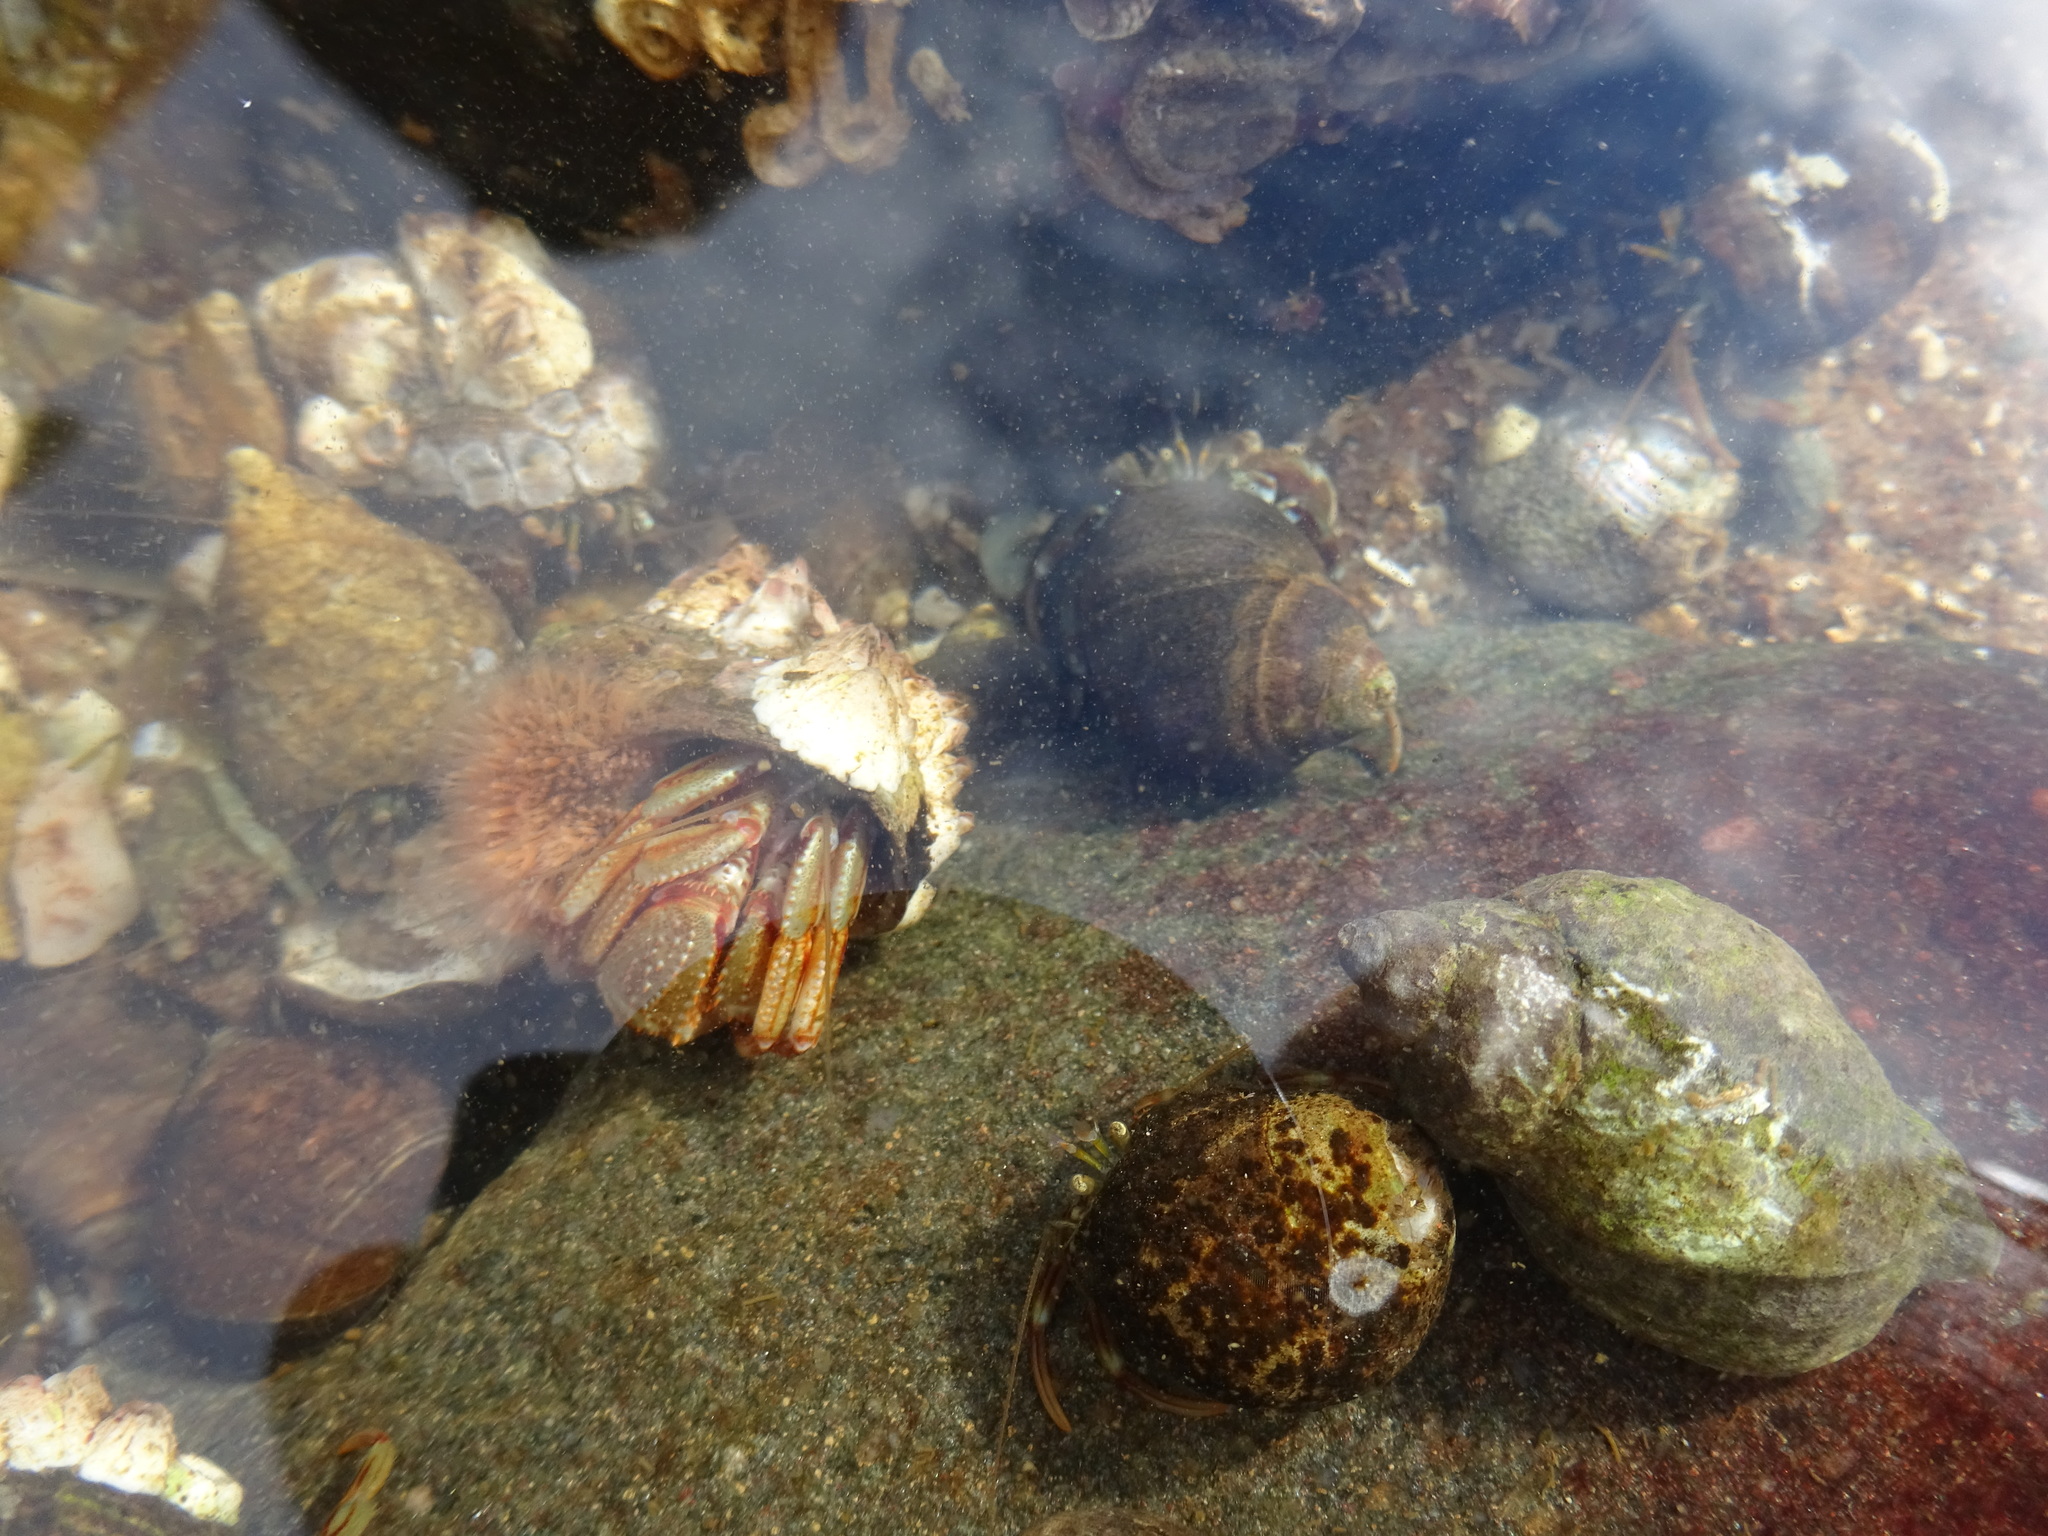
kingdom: Animalia
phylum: Arthropoda
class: Malacostraca
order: Decapoda
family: Paguridae
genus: Pagurus
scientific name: Pagurus bernhardus
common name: Hermit crab
